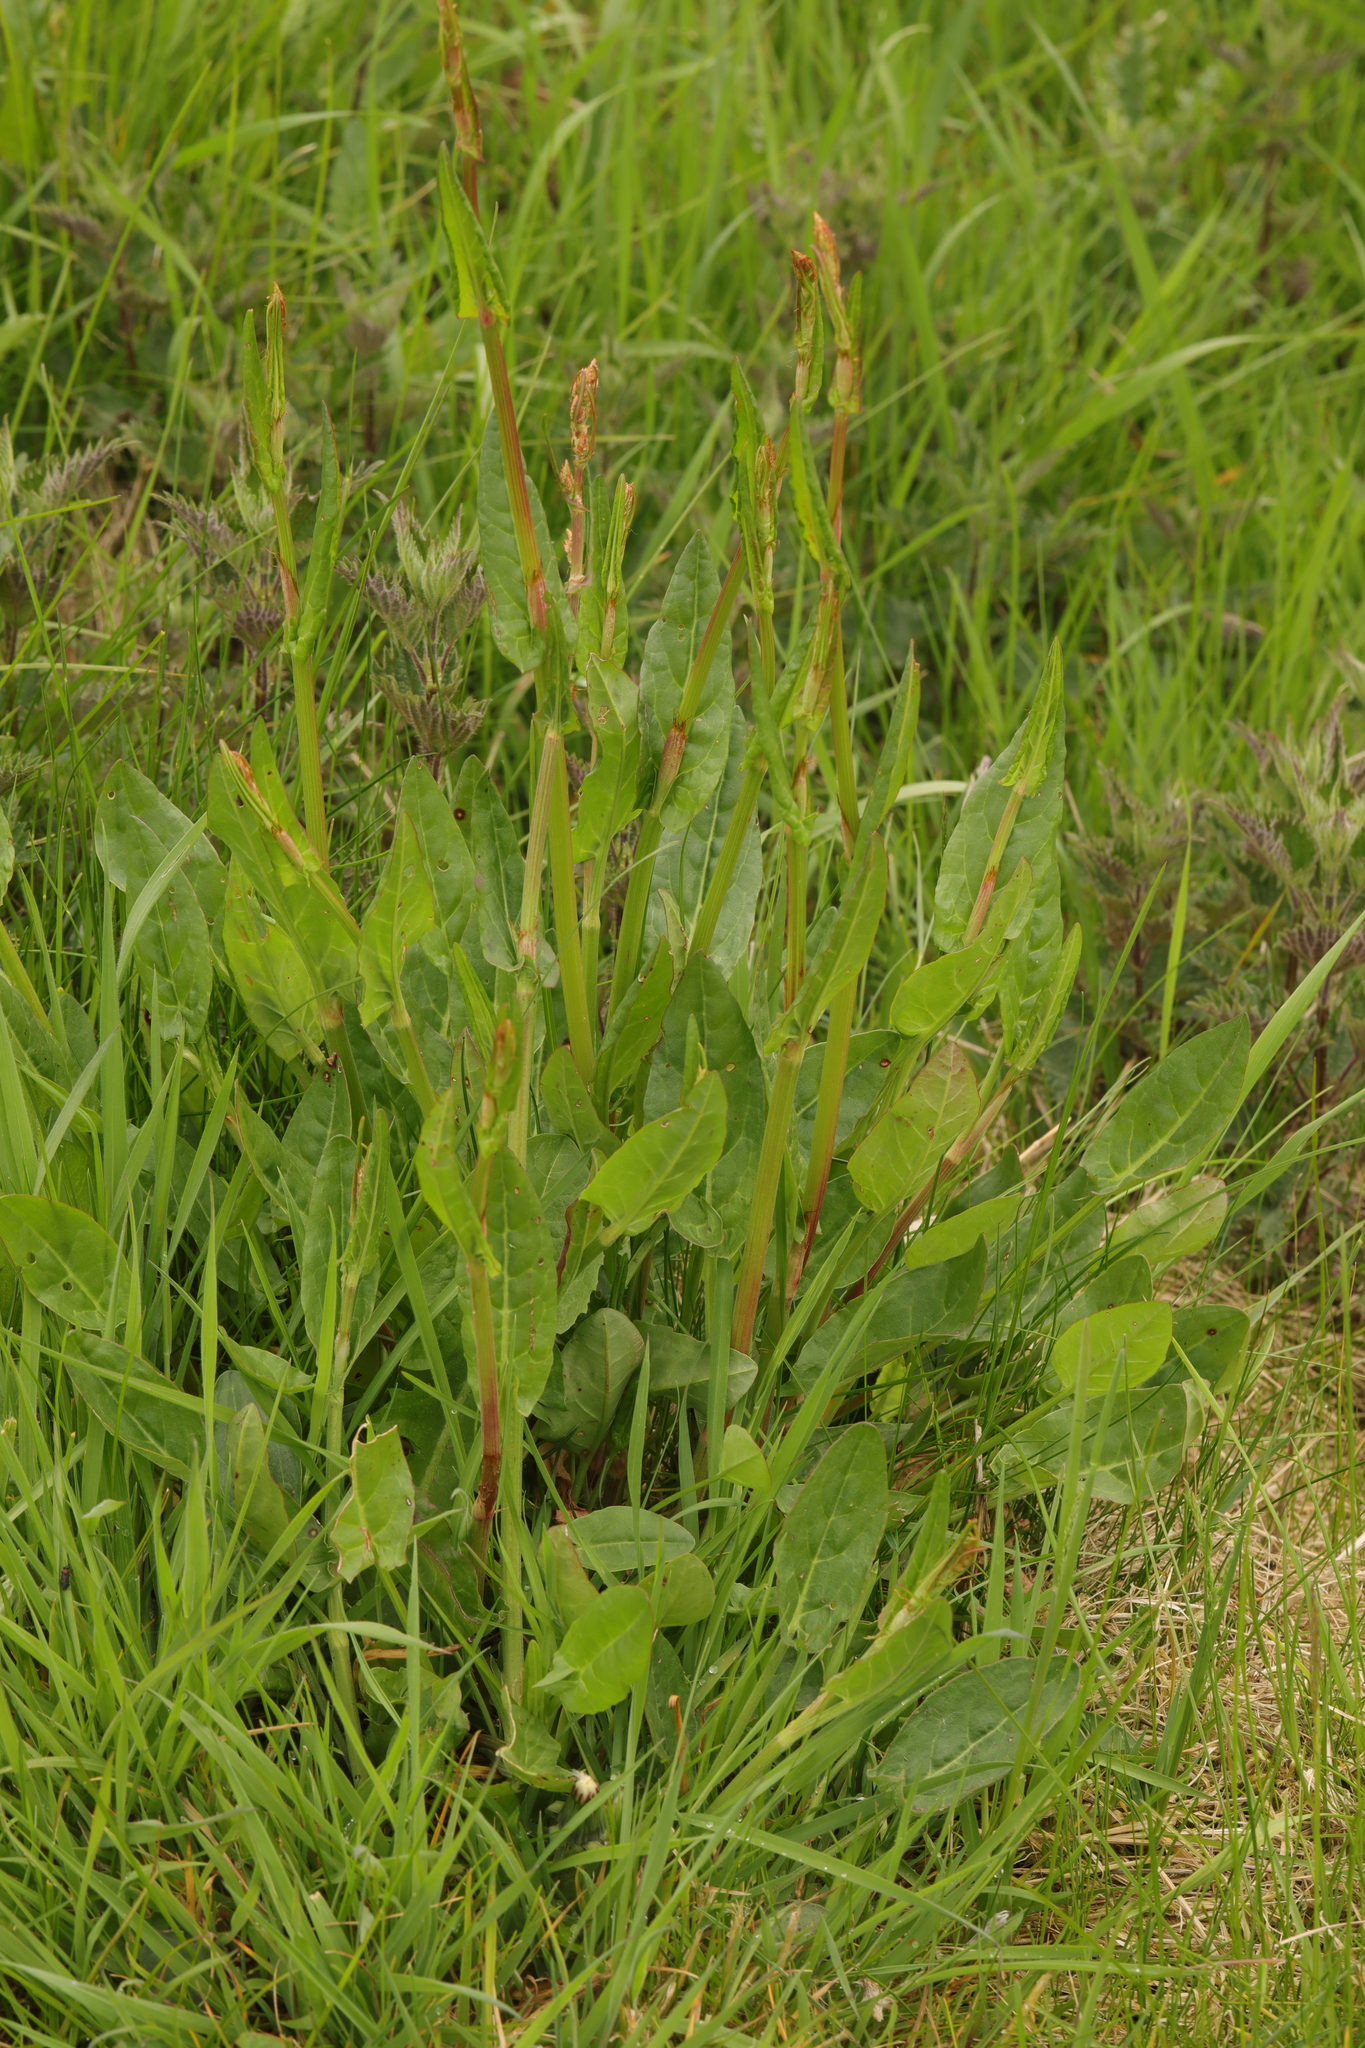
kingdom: Plantae
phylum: Tracheophyta
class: Magnoliopsida
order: Caryophyllales
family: Polygonaceae
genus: Rumex
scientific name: Rumex acetosa
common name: Garden sorrel
